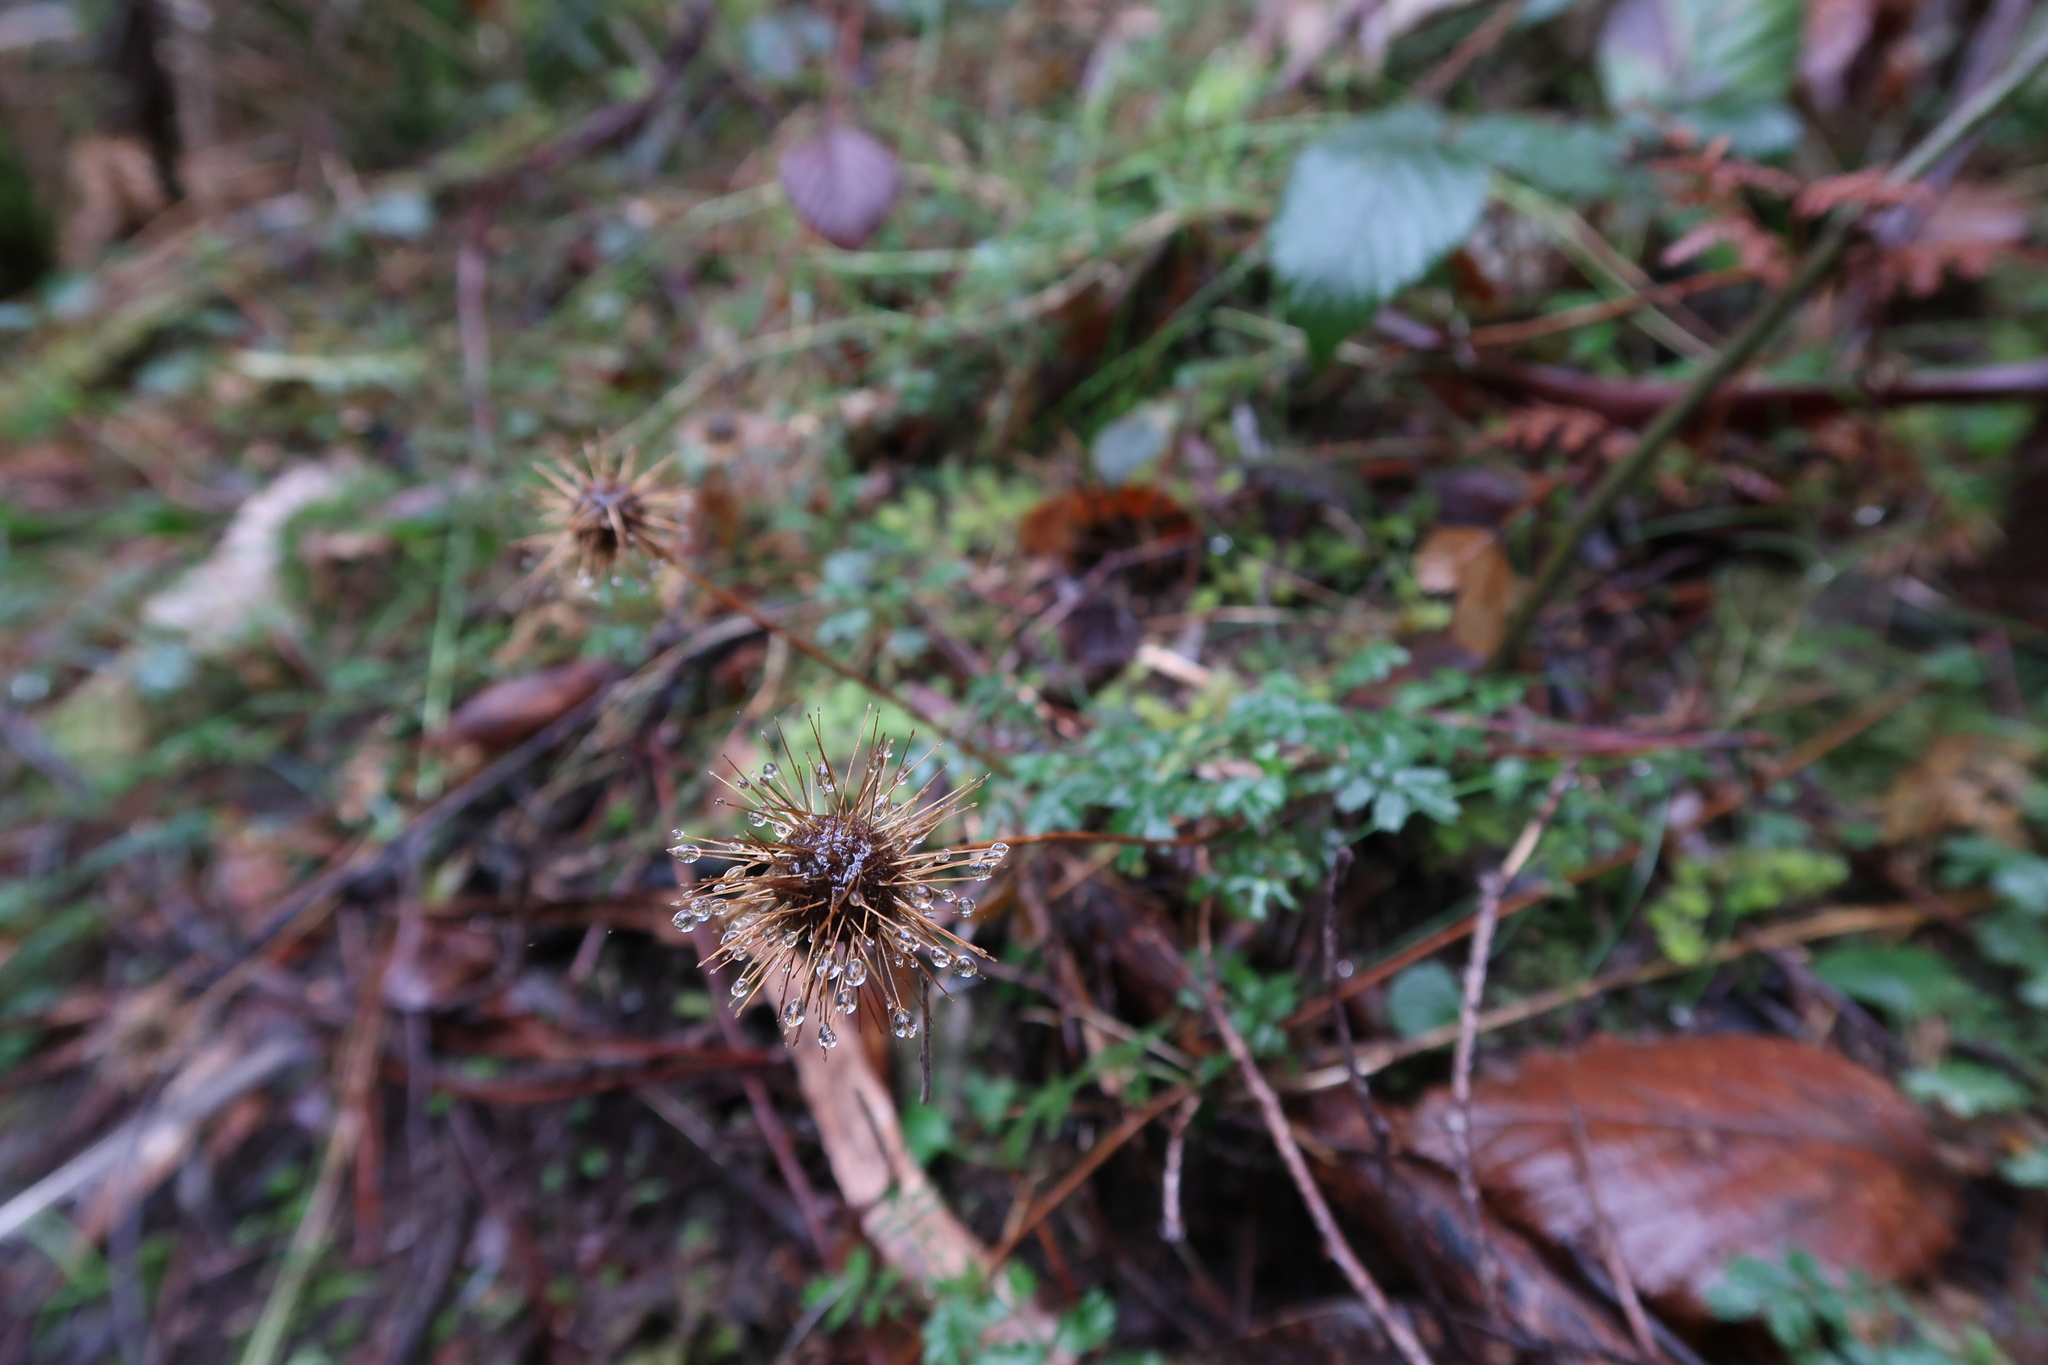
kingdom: Plantae
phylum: Tracheophyta
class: Magnoliopsida
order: Rosales
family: Rosaceae
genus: Acaena
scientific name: Acaena novae-zelandiae
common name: Pirri-pirri-bur
